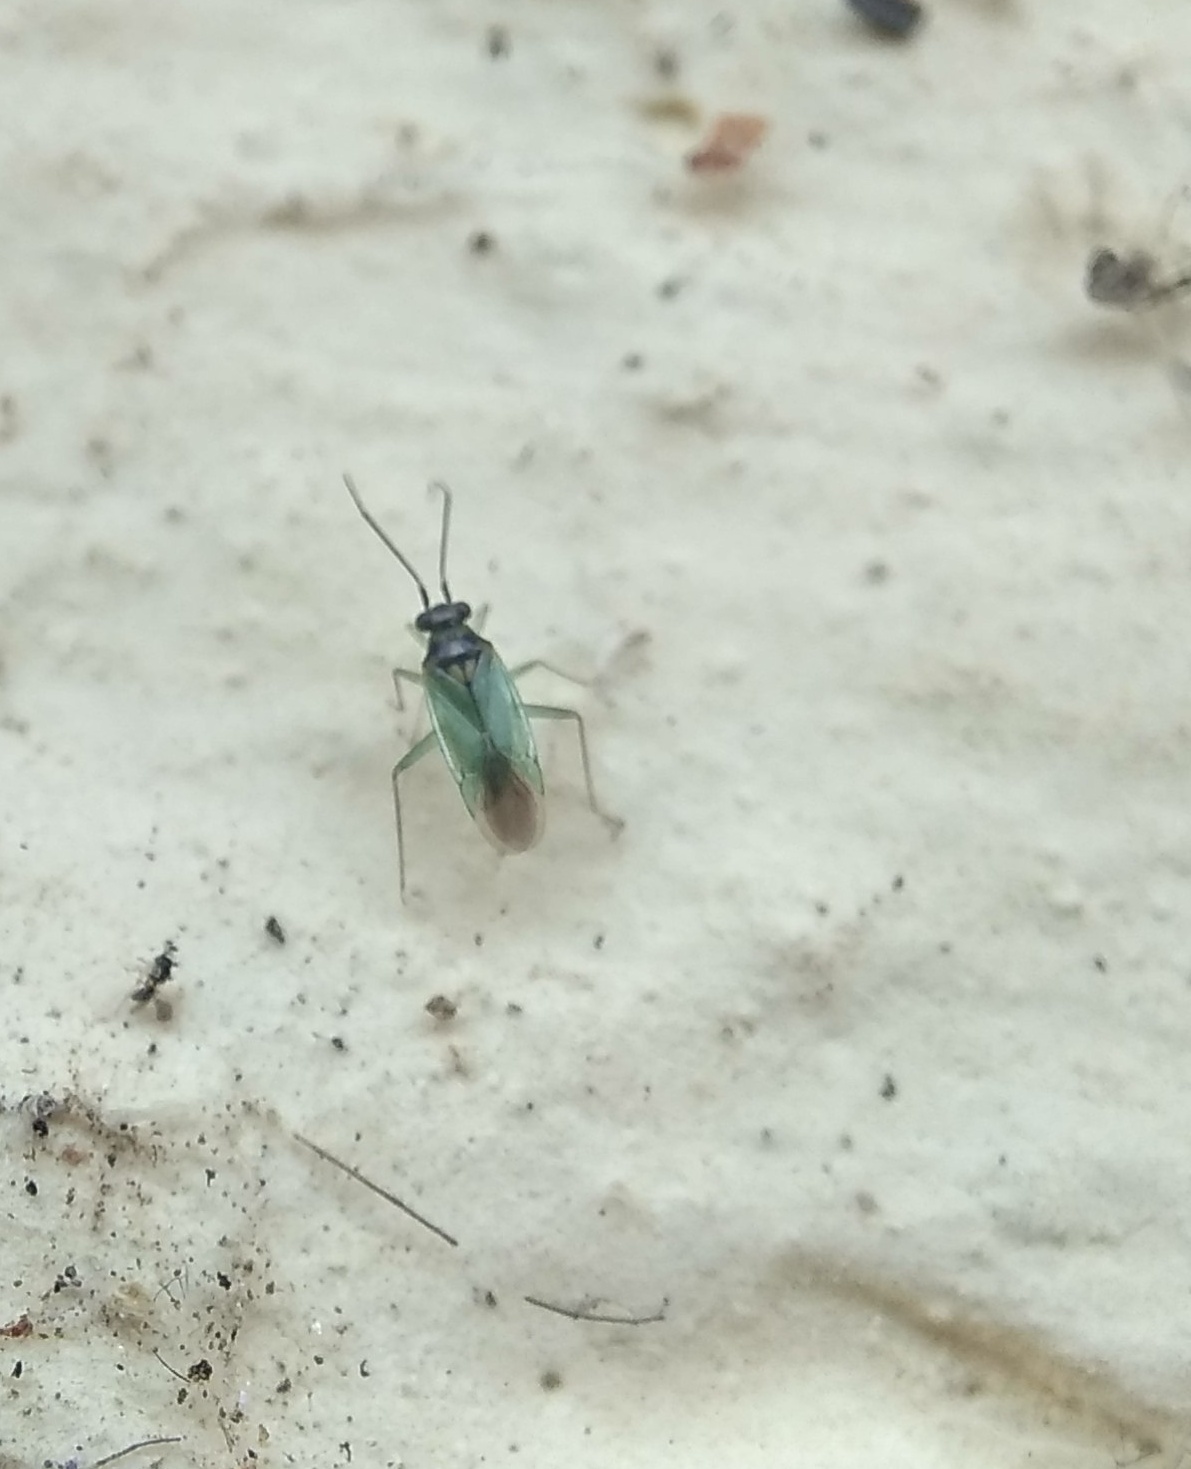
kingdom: Animalia
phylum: Arthropoda
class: Insecta
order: Hemiptera
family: Miridae
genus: Cyrtorhinus
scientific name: Cyrtorhinus lividipennis
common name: Plant bug
